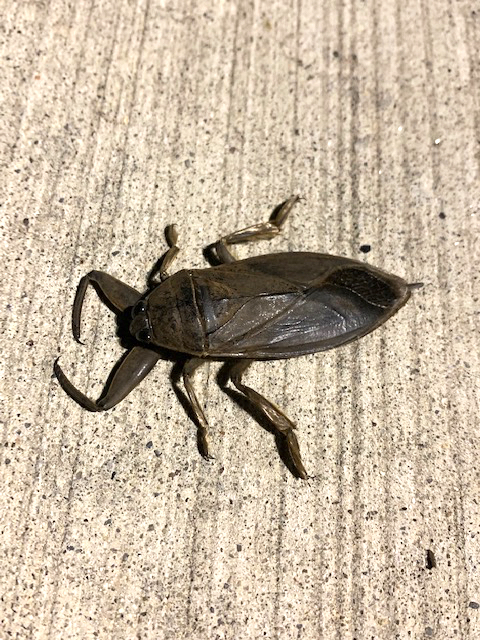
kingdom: Animalia
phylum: Arthropoda
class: Insecta
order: Hemiptera
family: Belostomatidae
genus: Lethocerus
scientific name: Lethocerus americanus
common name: Giant water bug
